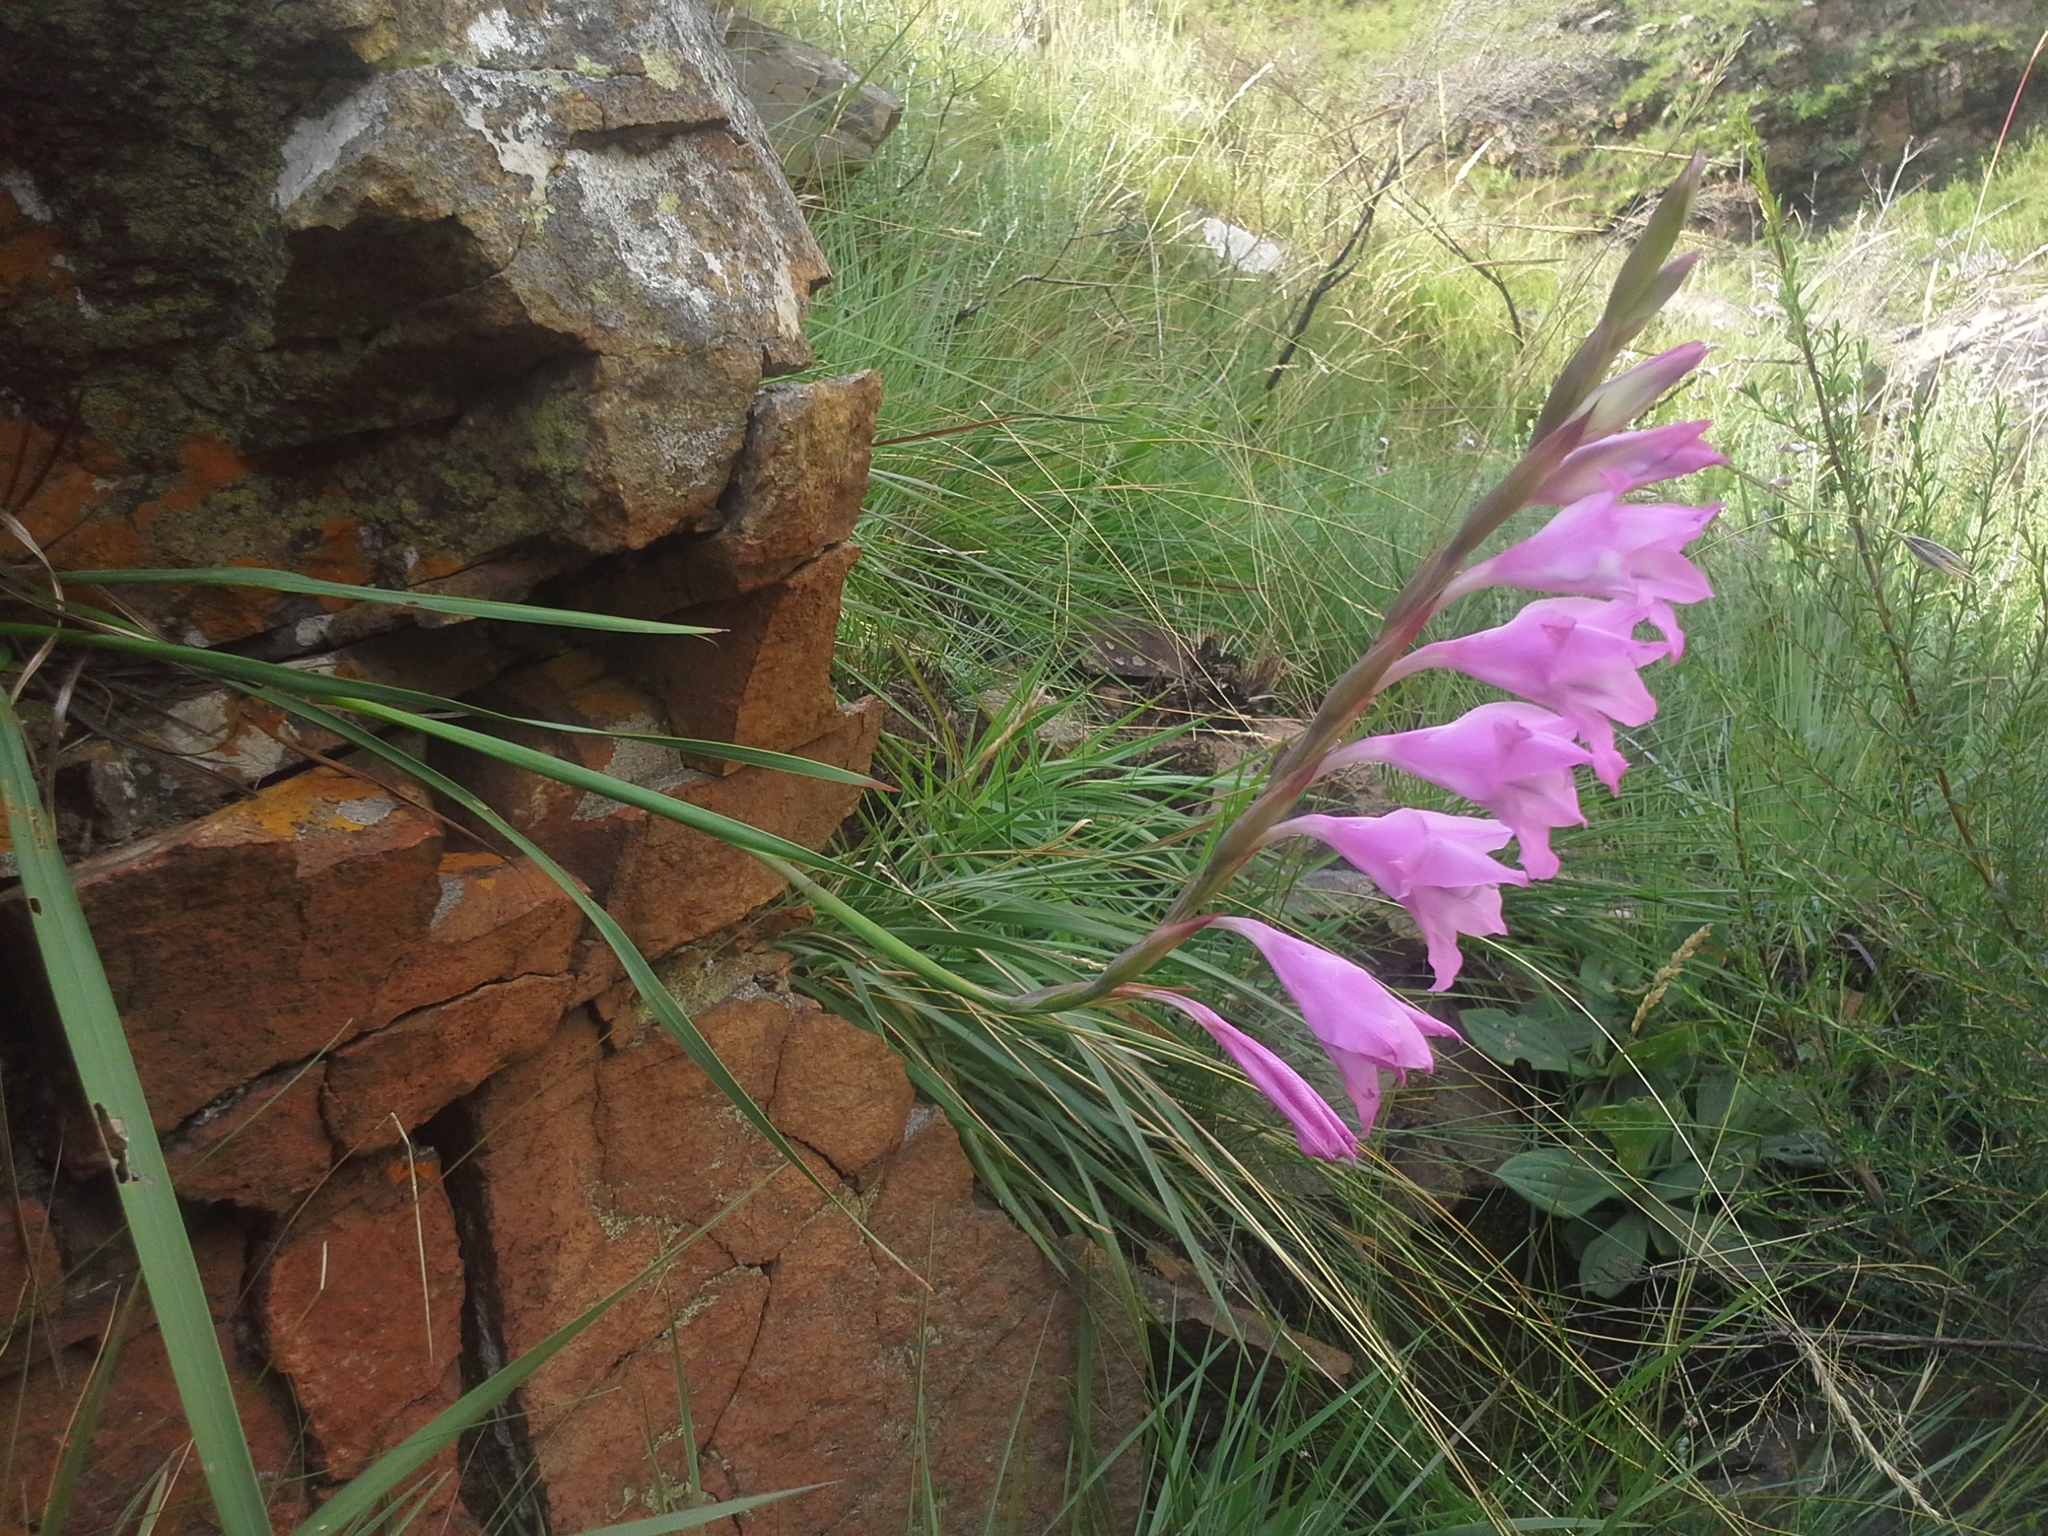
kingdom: Plantae
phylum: Tracheophyta
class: Liliopsida
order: Asparagales
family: Iridaceae
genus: Gladiolus
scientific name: Gladiolus varius
